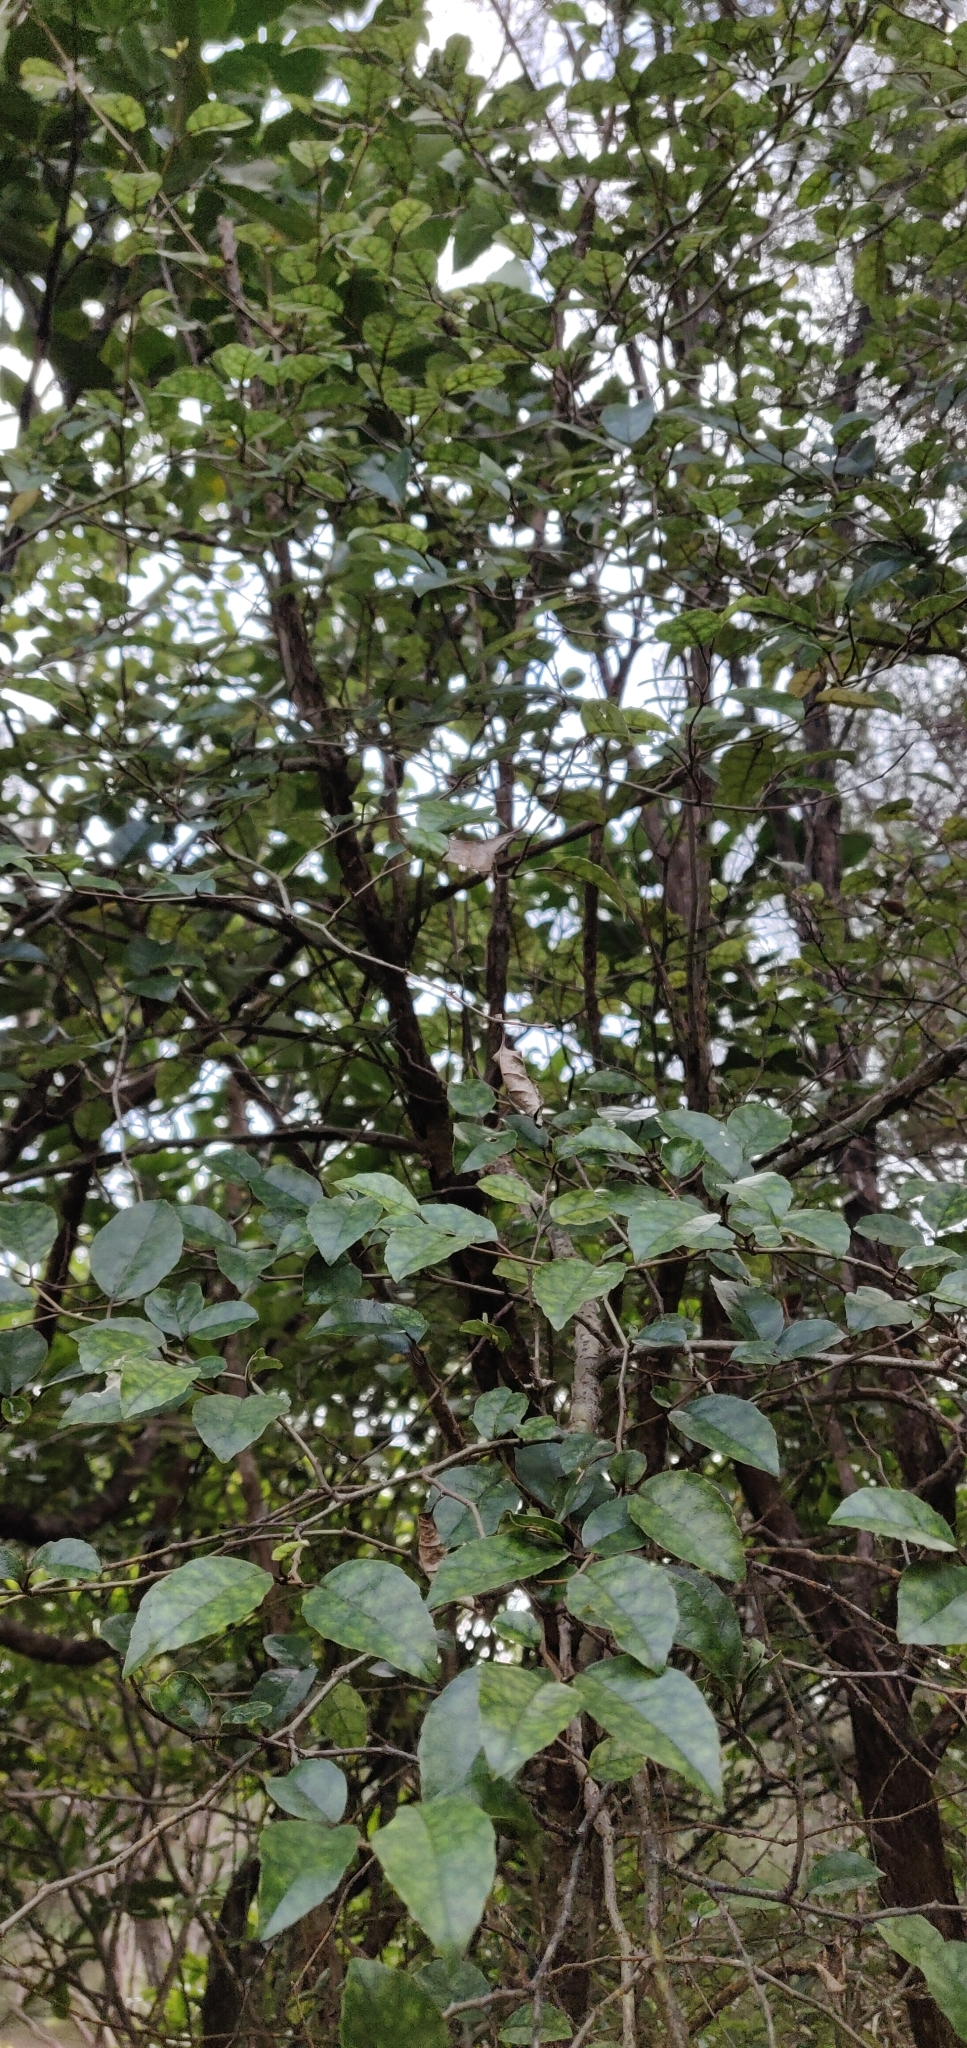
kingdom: Plantae
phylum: Tracheophyta
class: Magnoliopsida
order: Asterales
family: Rousseaceae
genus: Carpodetus
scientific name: Carpodetus serratus
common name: White mapau
